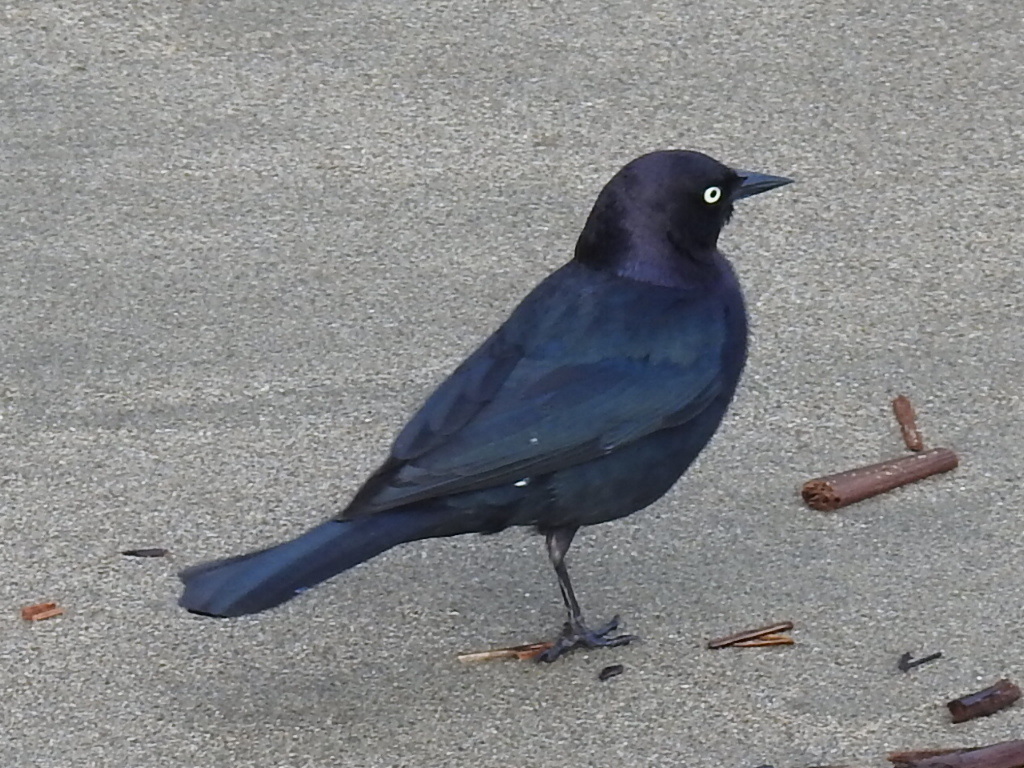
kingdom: Animalia
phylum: Chordata
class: Aves
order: Passeriformes
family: Icteridae
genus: Euphagus
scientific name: Euphagus cyanocephalus
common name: Brewer's blackbird
